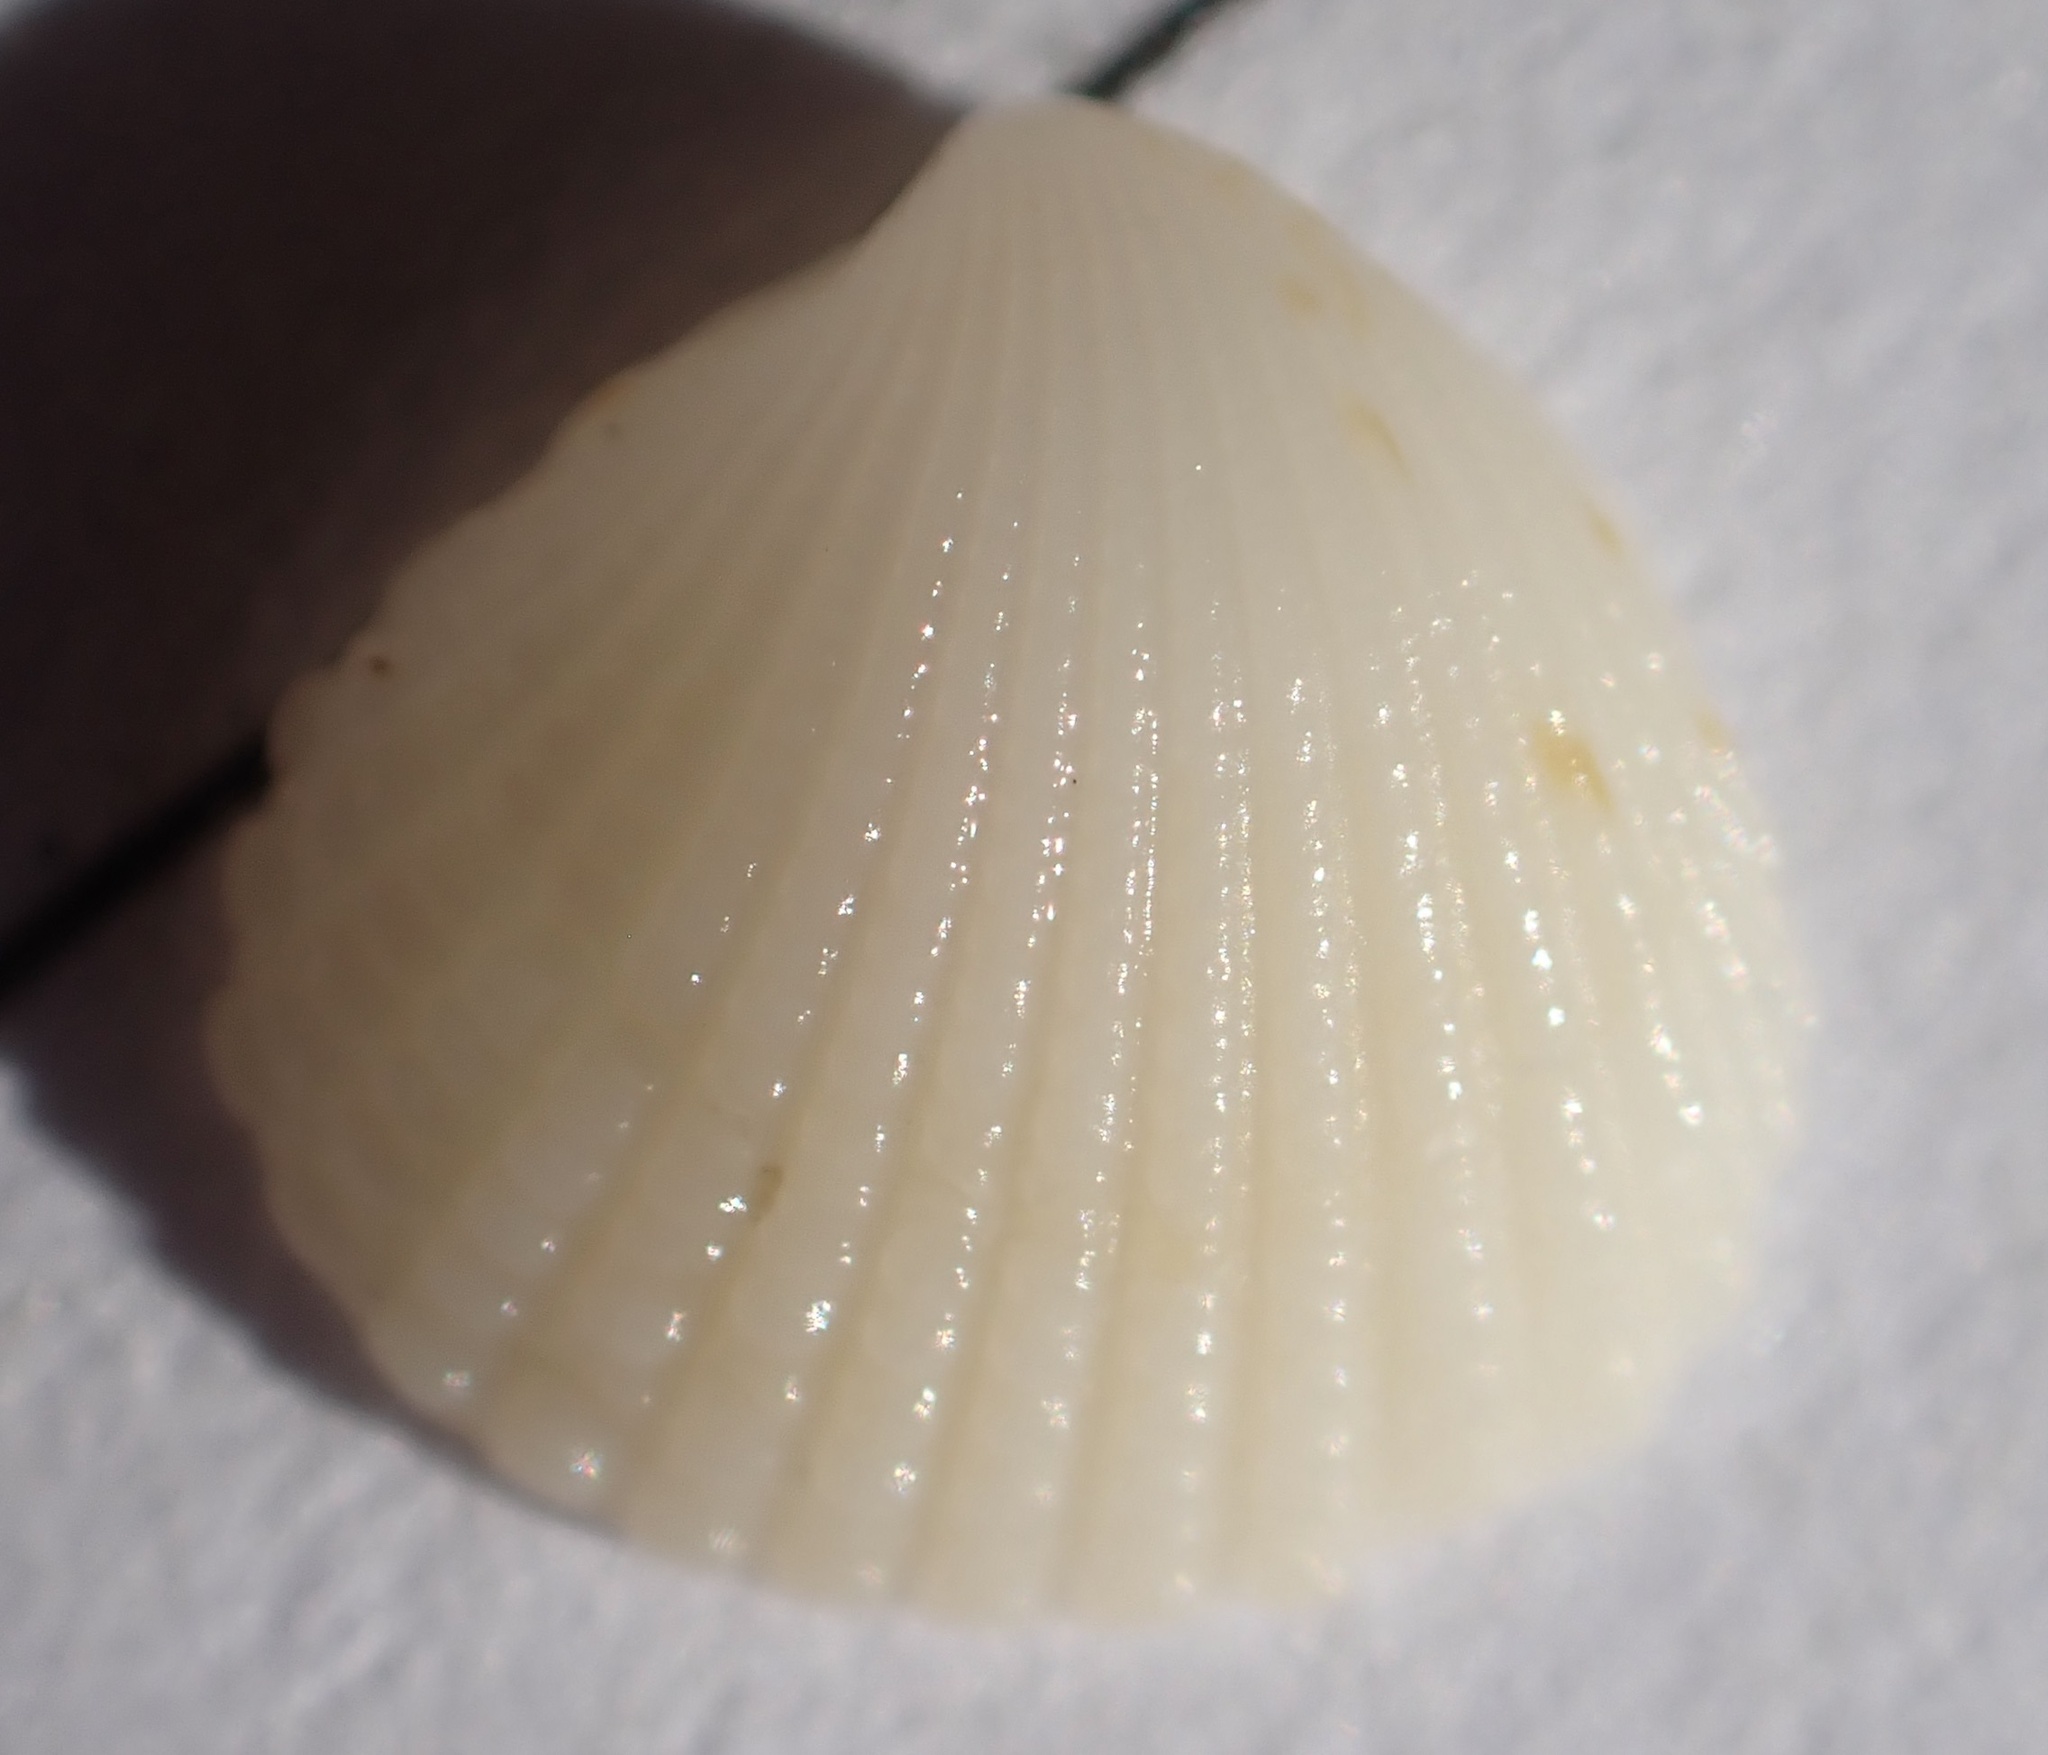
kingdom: Animalia
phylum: Mollusca
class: Bivalvia
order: Carditida
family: Carditidae
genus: Pleuromeris
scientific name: Pleuromeris tridentata
